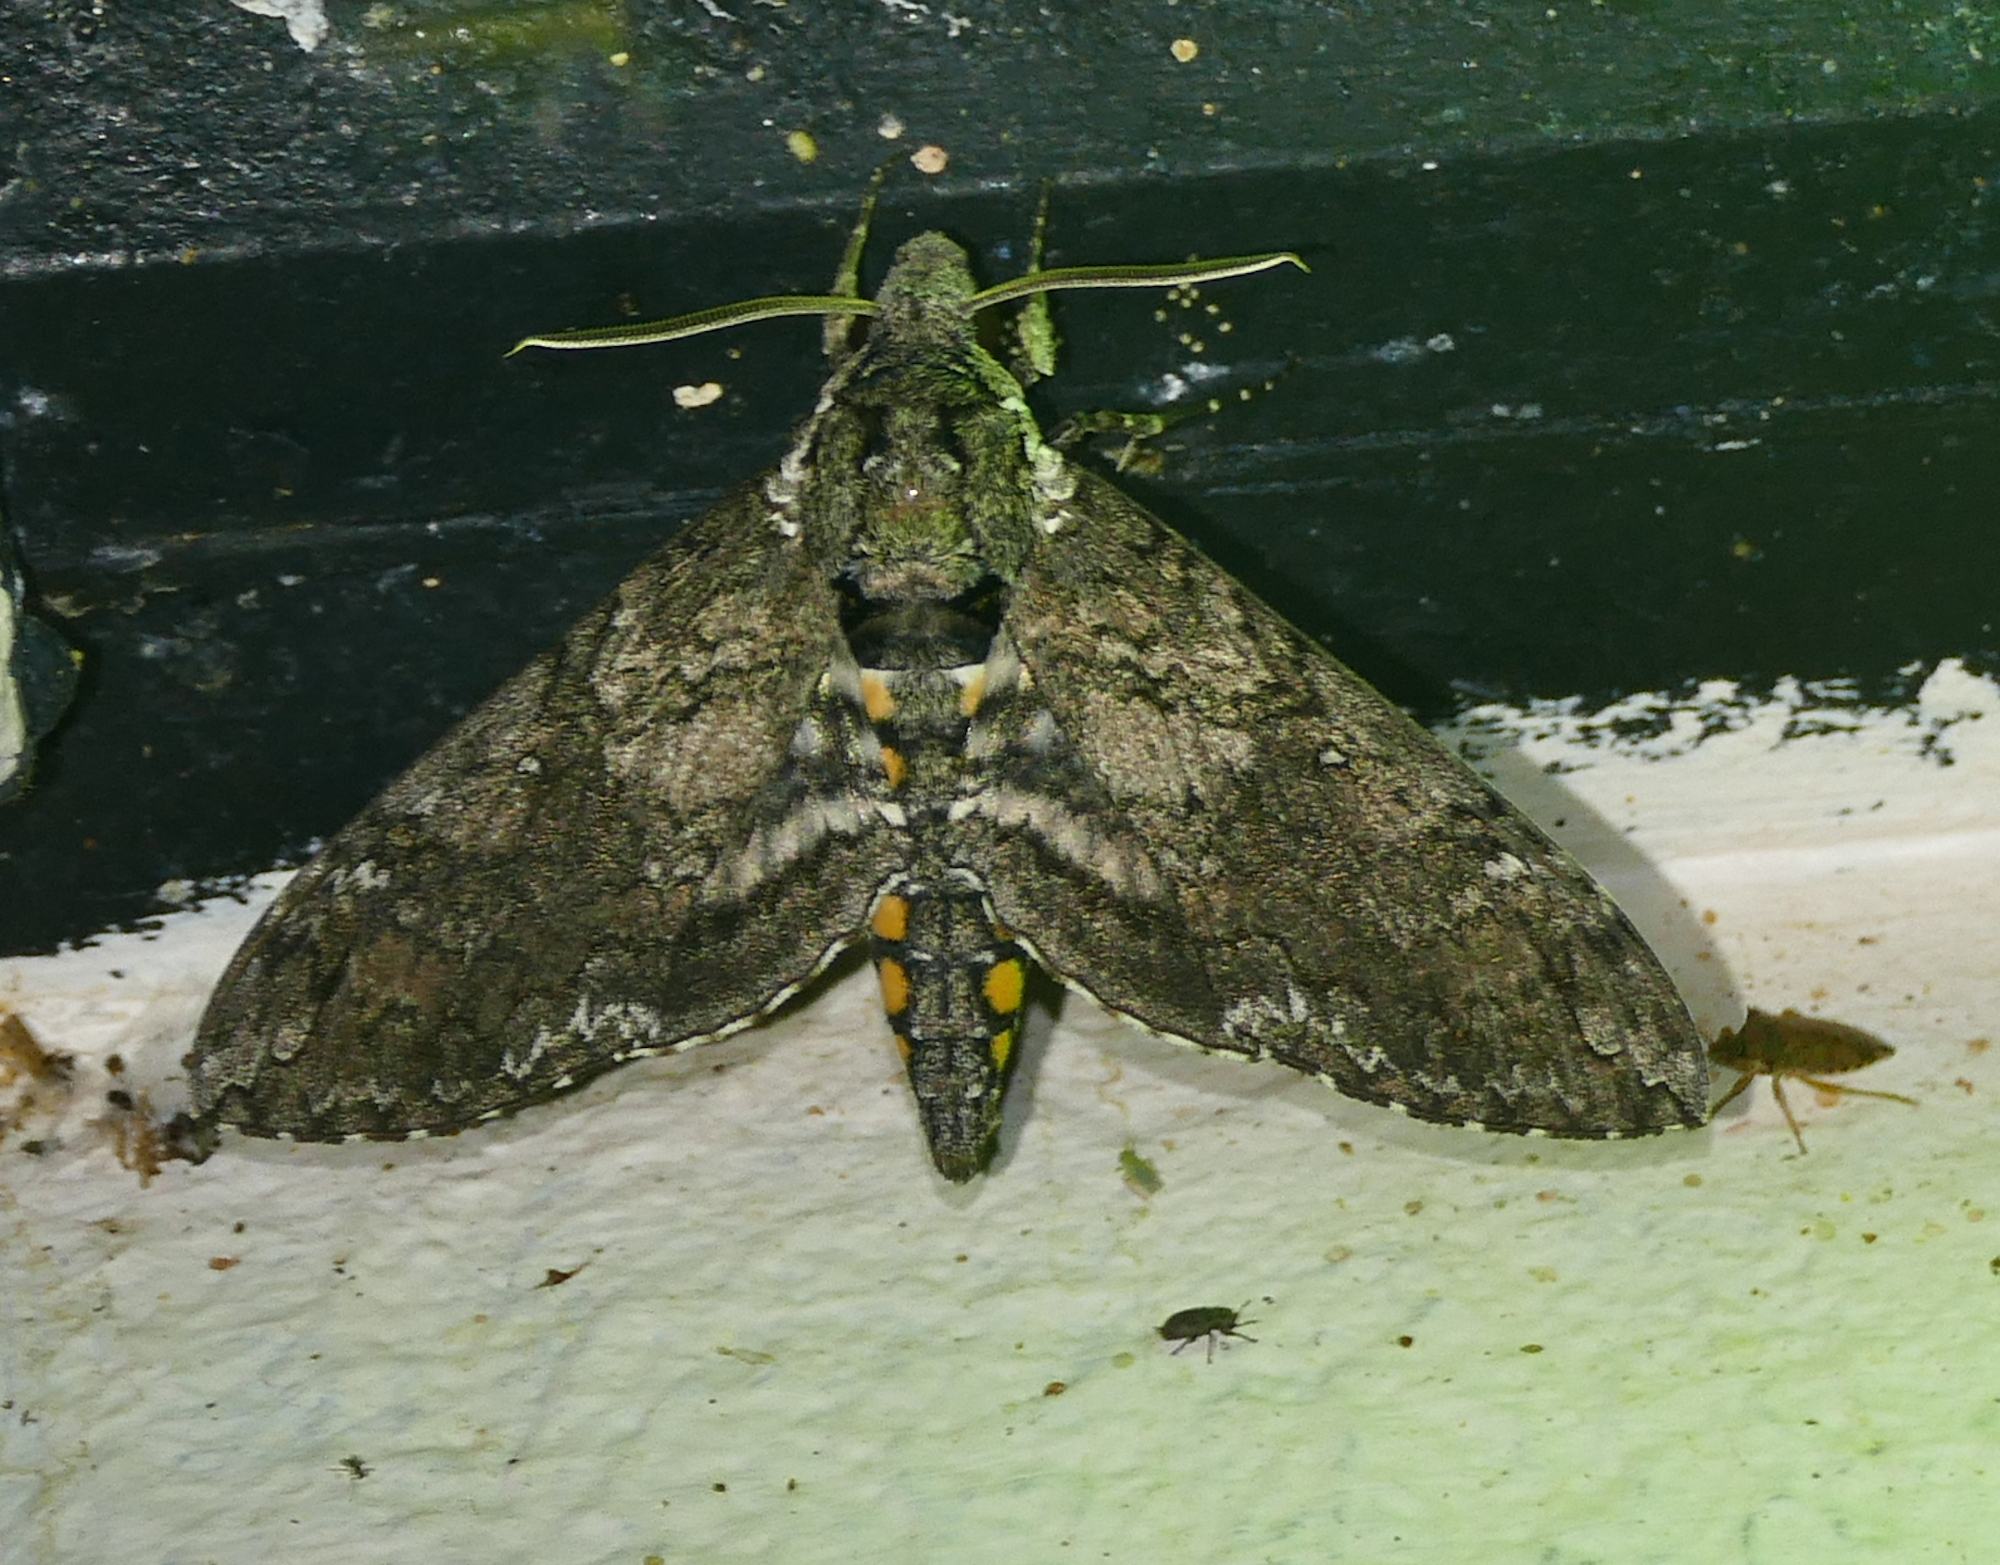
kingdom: Animalia
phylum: Arthropoda
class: Insecta
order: Lepidoptera
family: Sphingidae
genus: Manduca
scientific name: Manduca sexta
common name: Carolina sphinx
